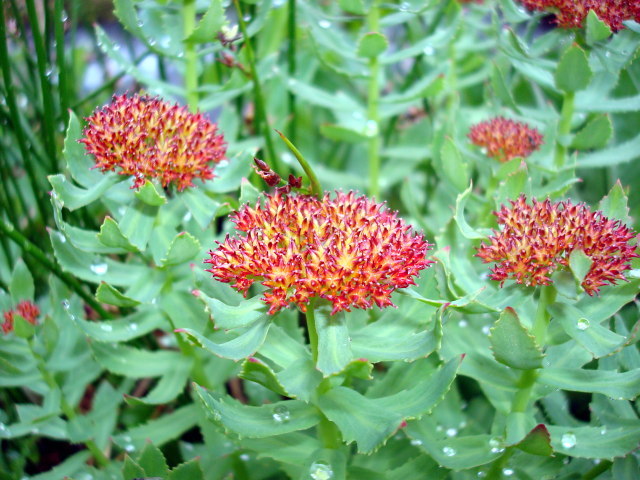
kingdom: Plantae
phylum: Tracheophyta
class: Magnoliopsida
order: Saxifragales
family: Crassulaceae
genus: Rhodiola
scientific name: Rhodiola integrifolia
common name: Western roseroot
